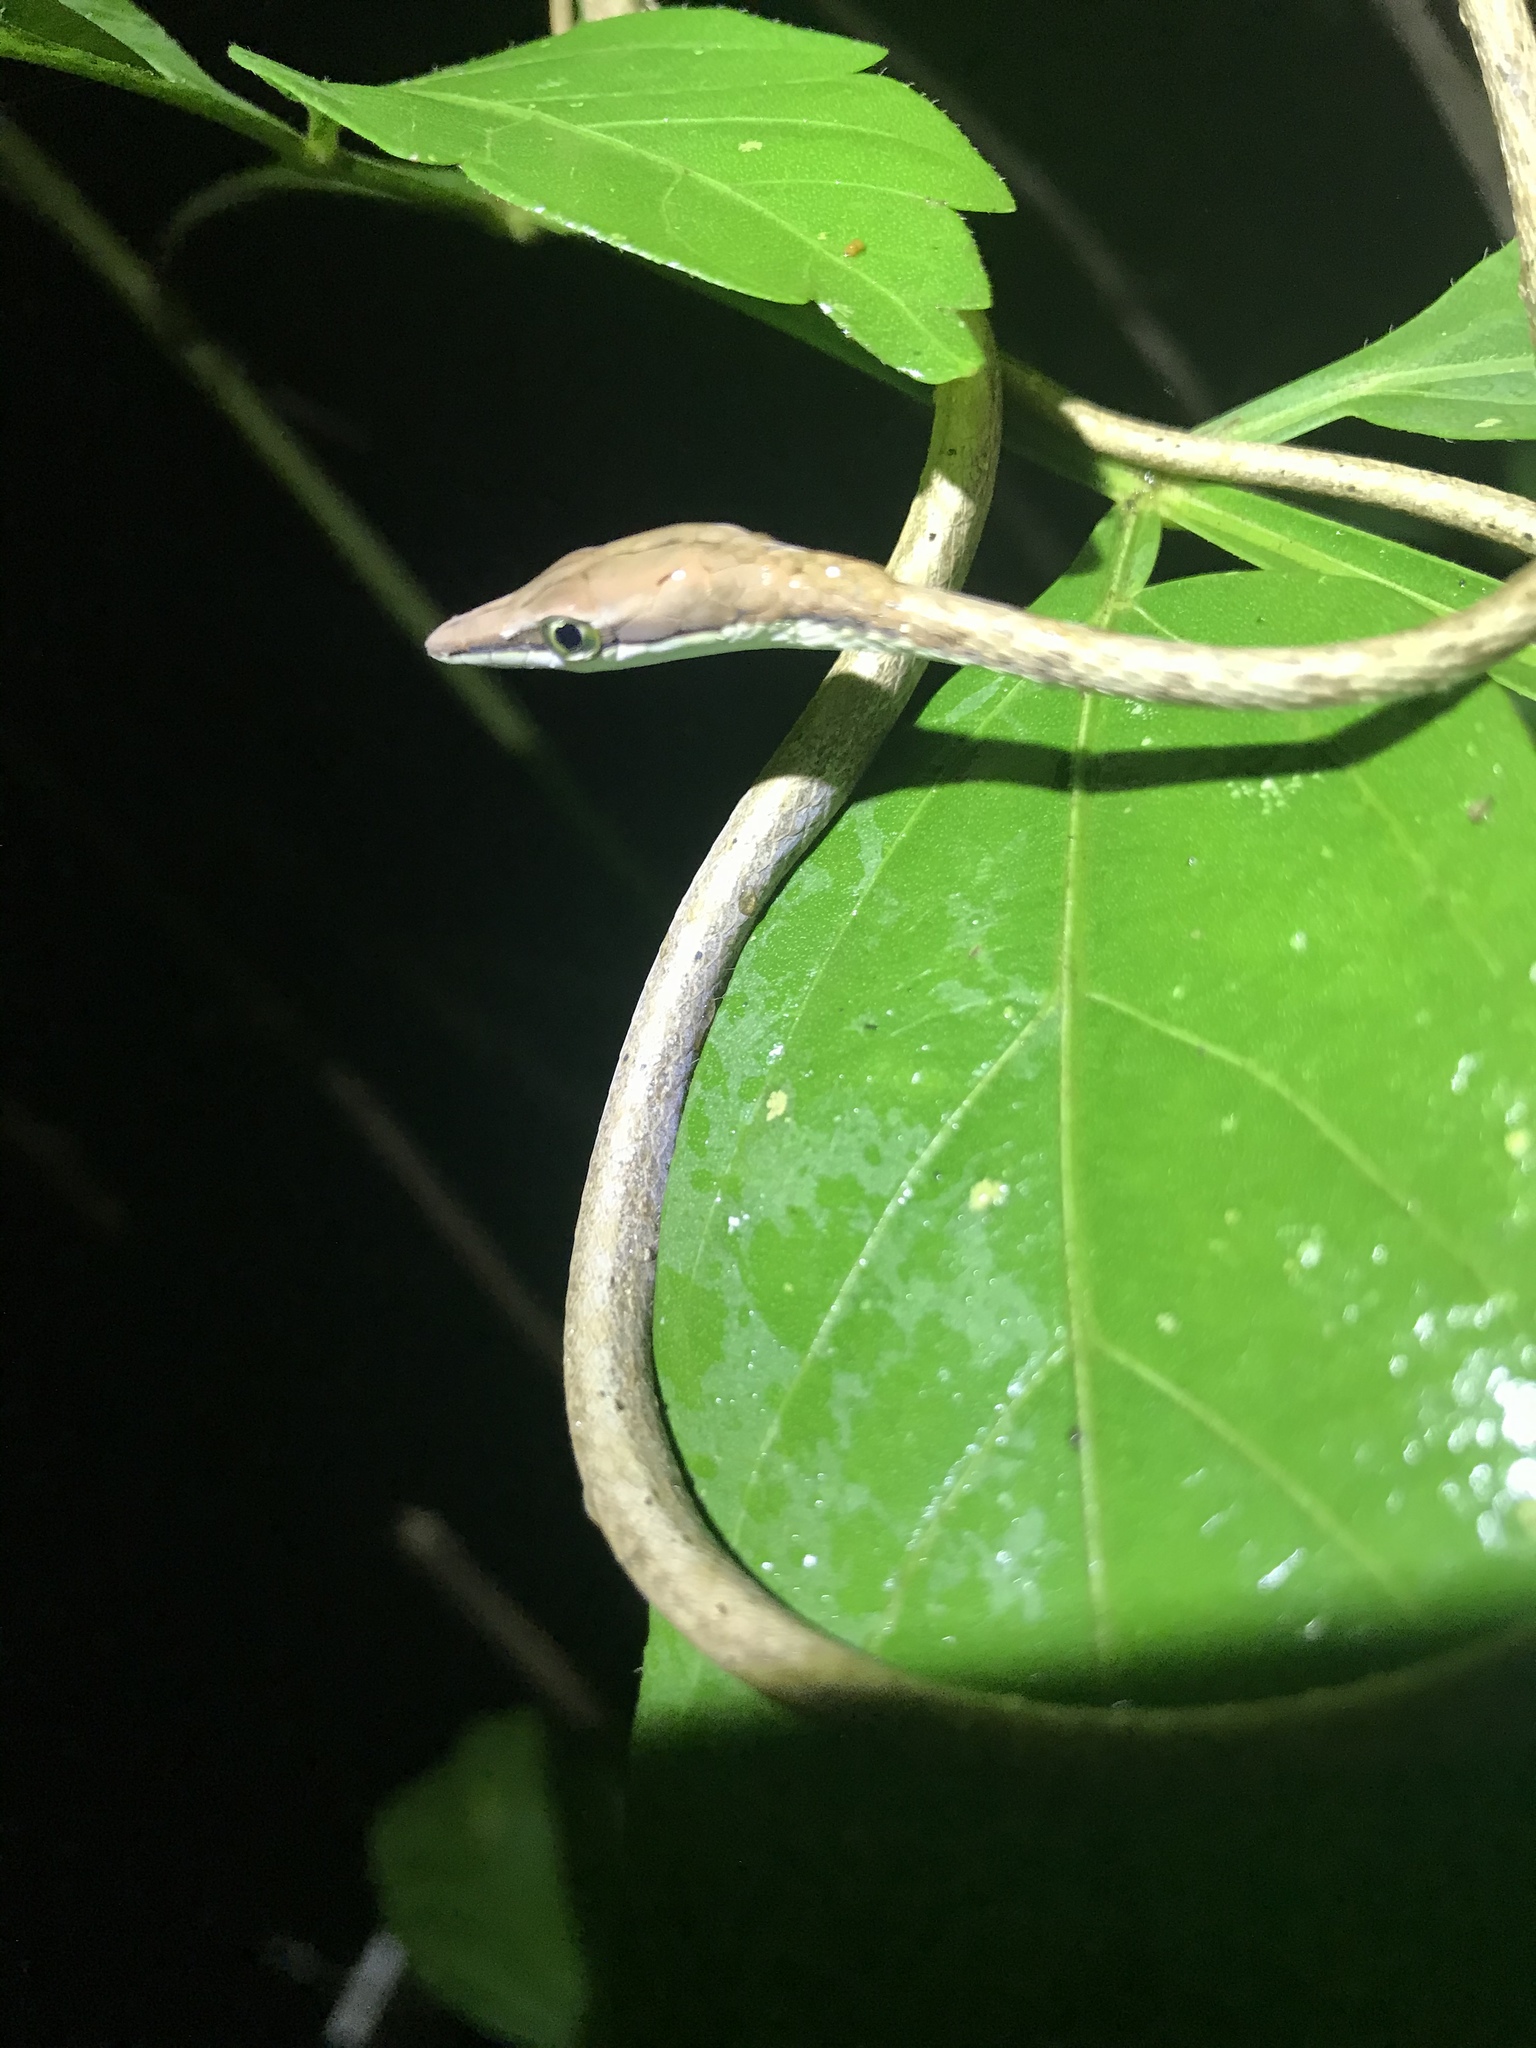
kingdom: Animalia
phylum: Chordata
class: Squamata
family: Colubridae
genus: Oxybelis
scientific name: Oxybelis vittatus
